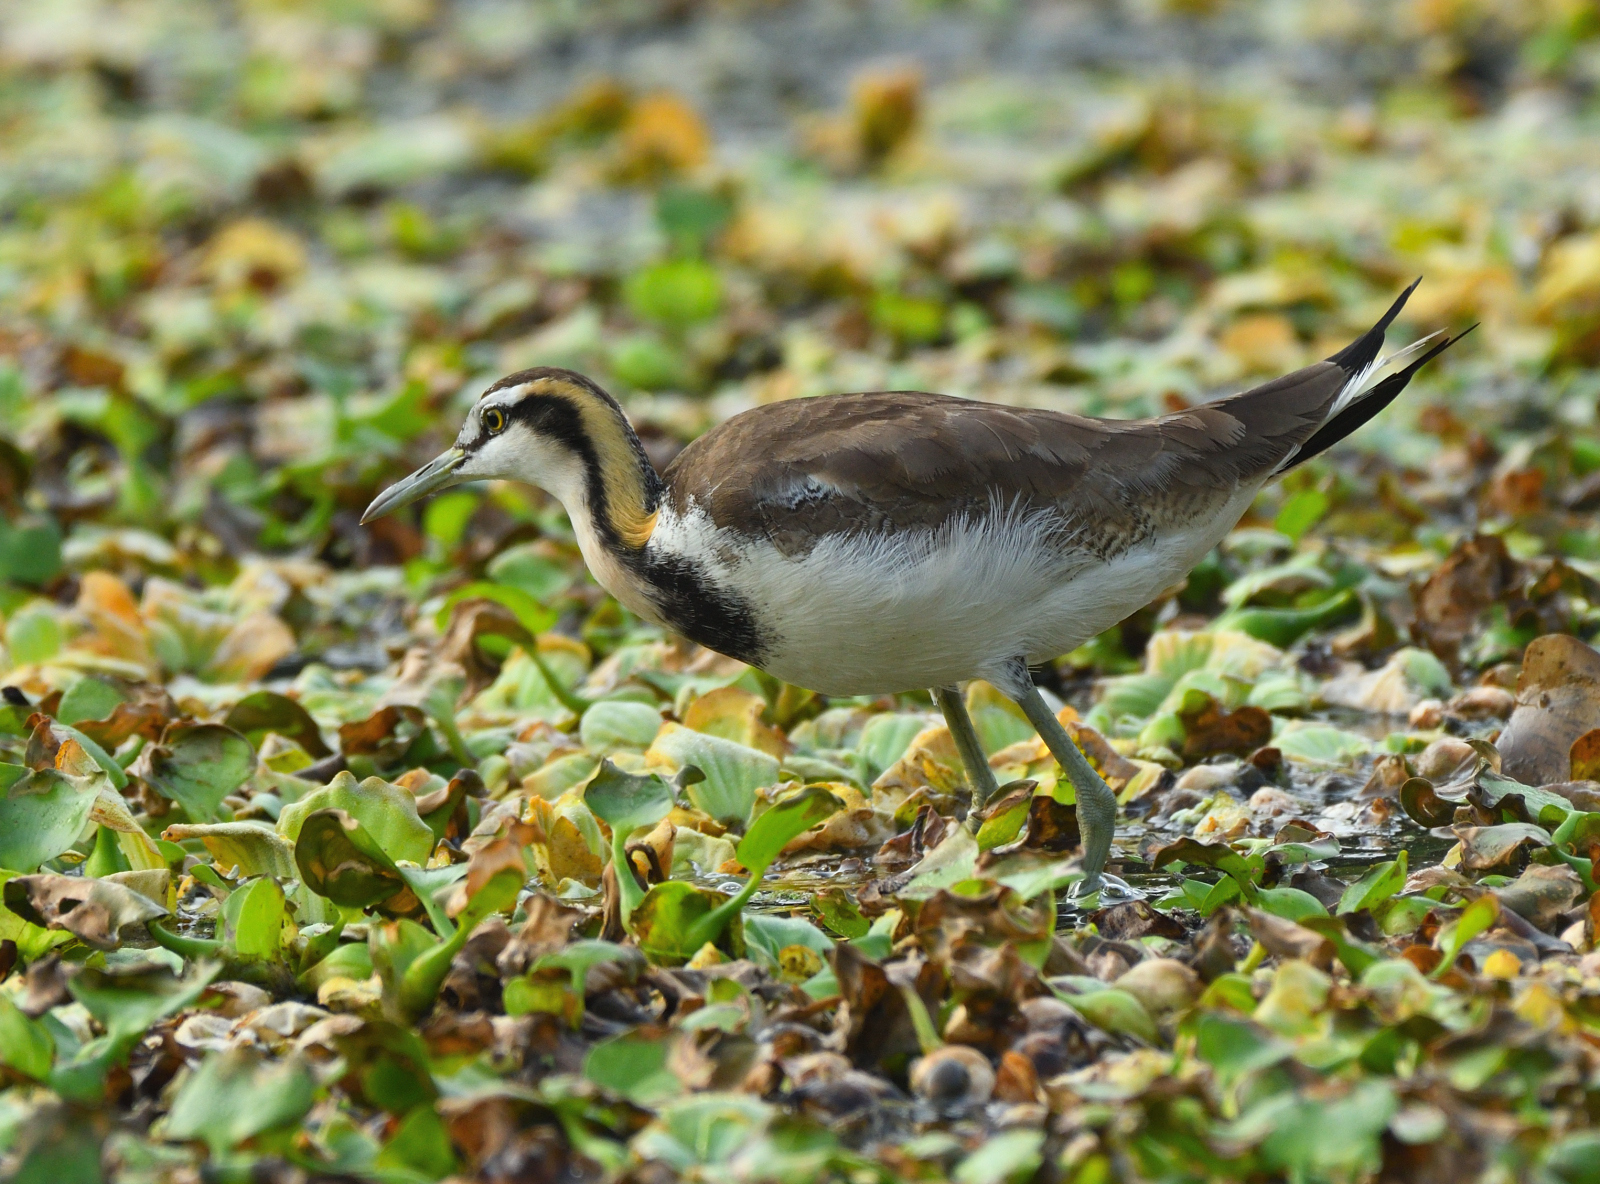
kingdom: Animalia
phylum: Chordata
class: Aves
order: Charadriiformes
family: Jacanidae
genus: Hydrophasianus
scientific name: Hydrophasianus chirurgus
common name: Pheasant-tailed jacana
